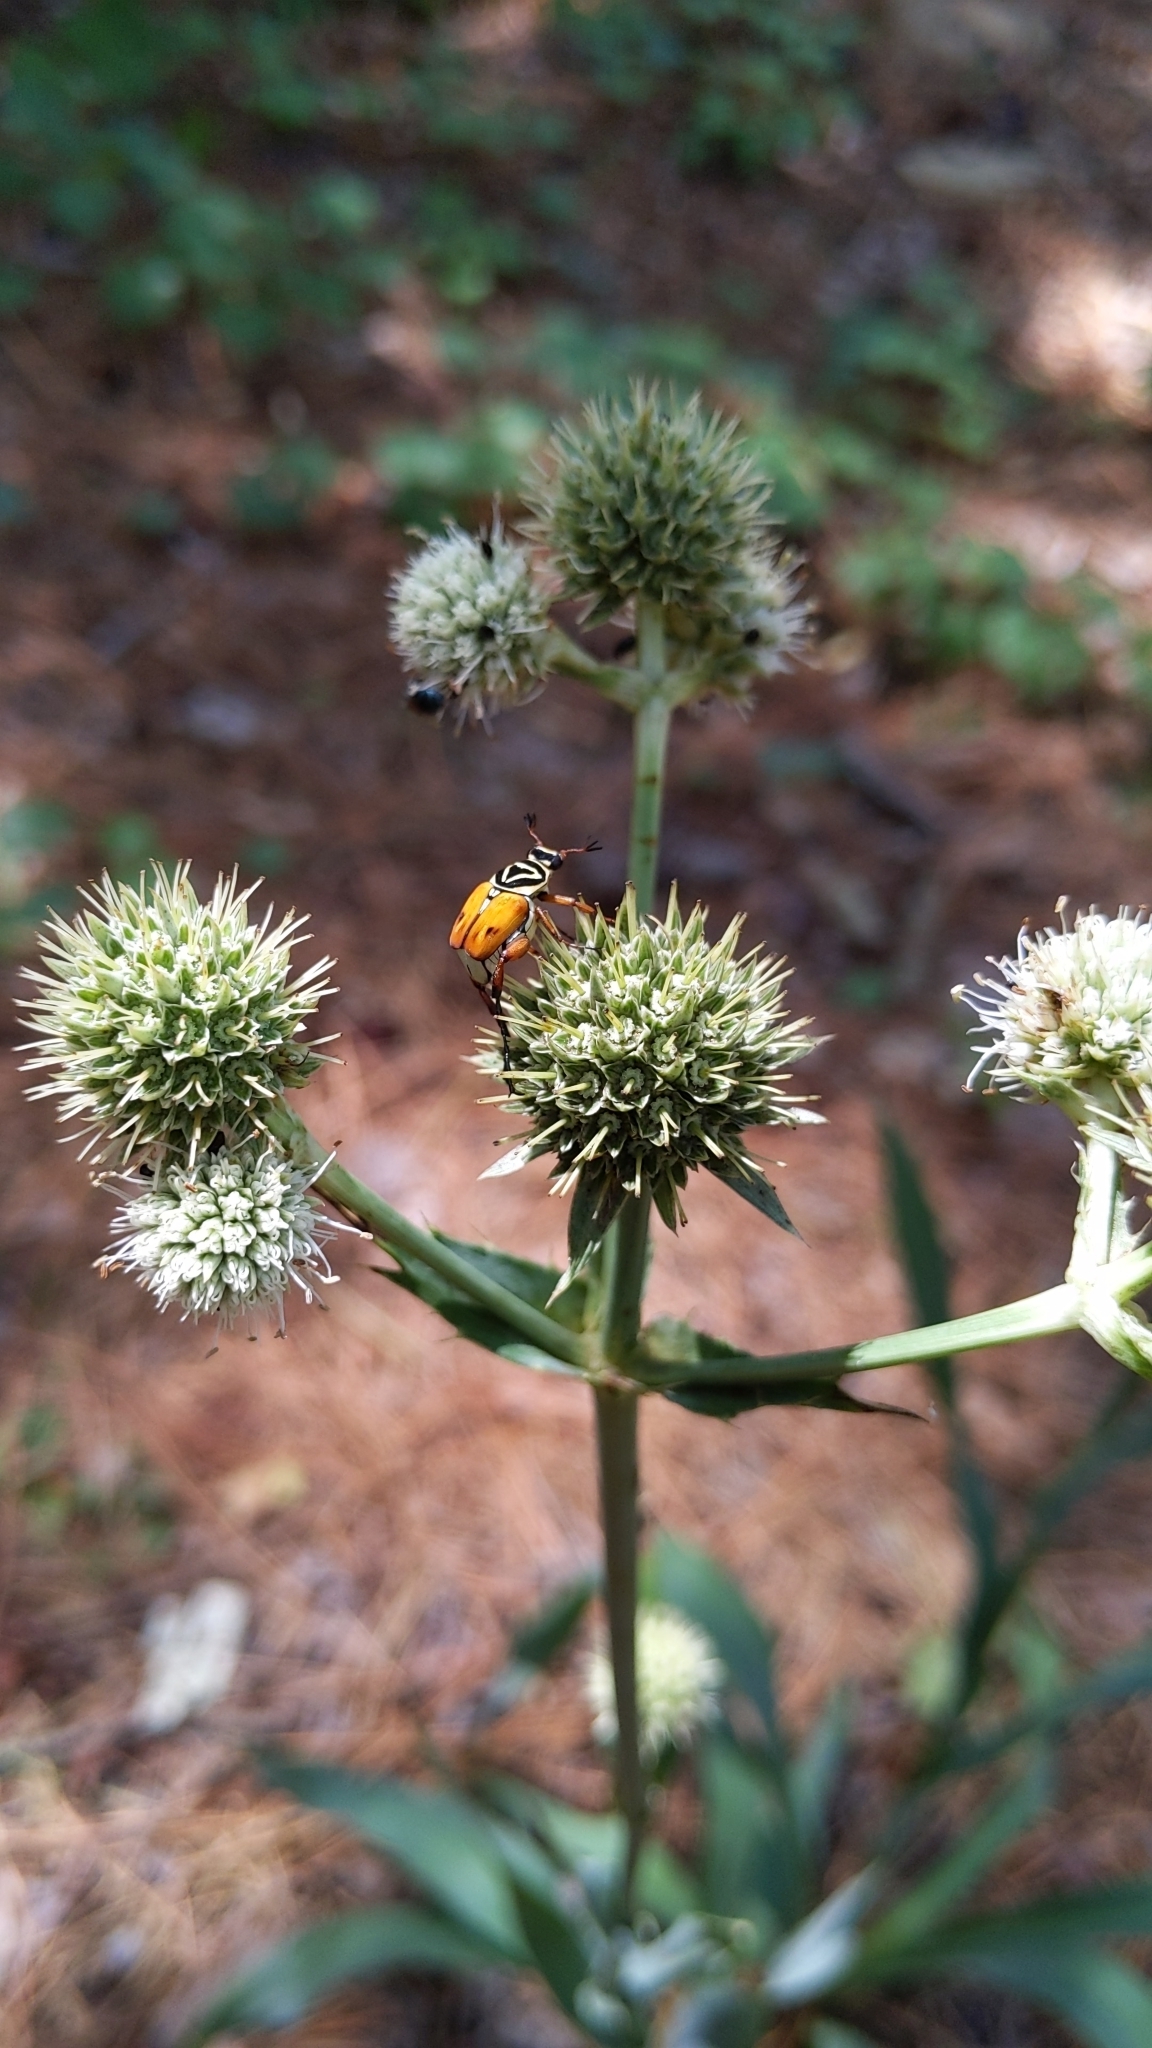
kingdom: Animalia
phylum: Arthropoda
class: Insecta
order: Coleoptera
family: Scarabaeidae
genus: Trigonopeltastes
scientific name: Trigonopeltastes delta
